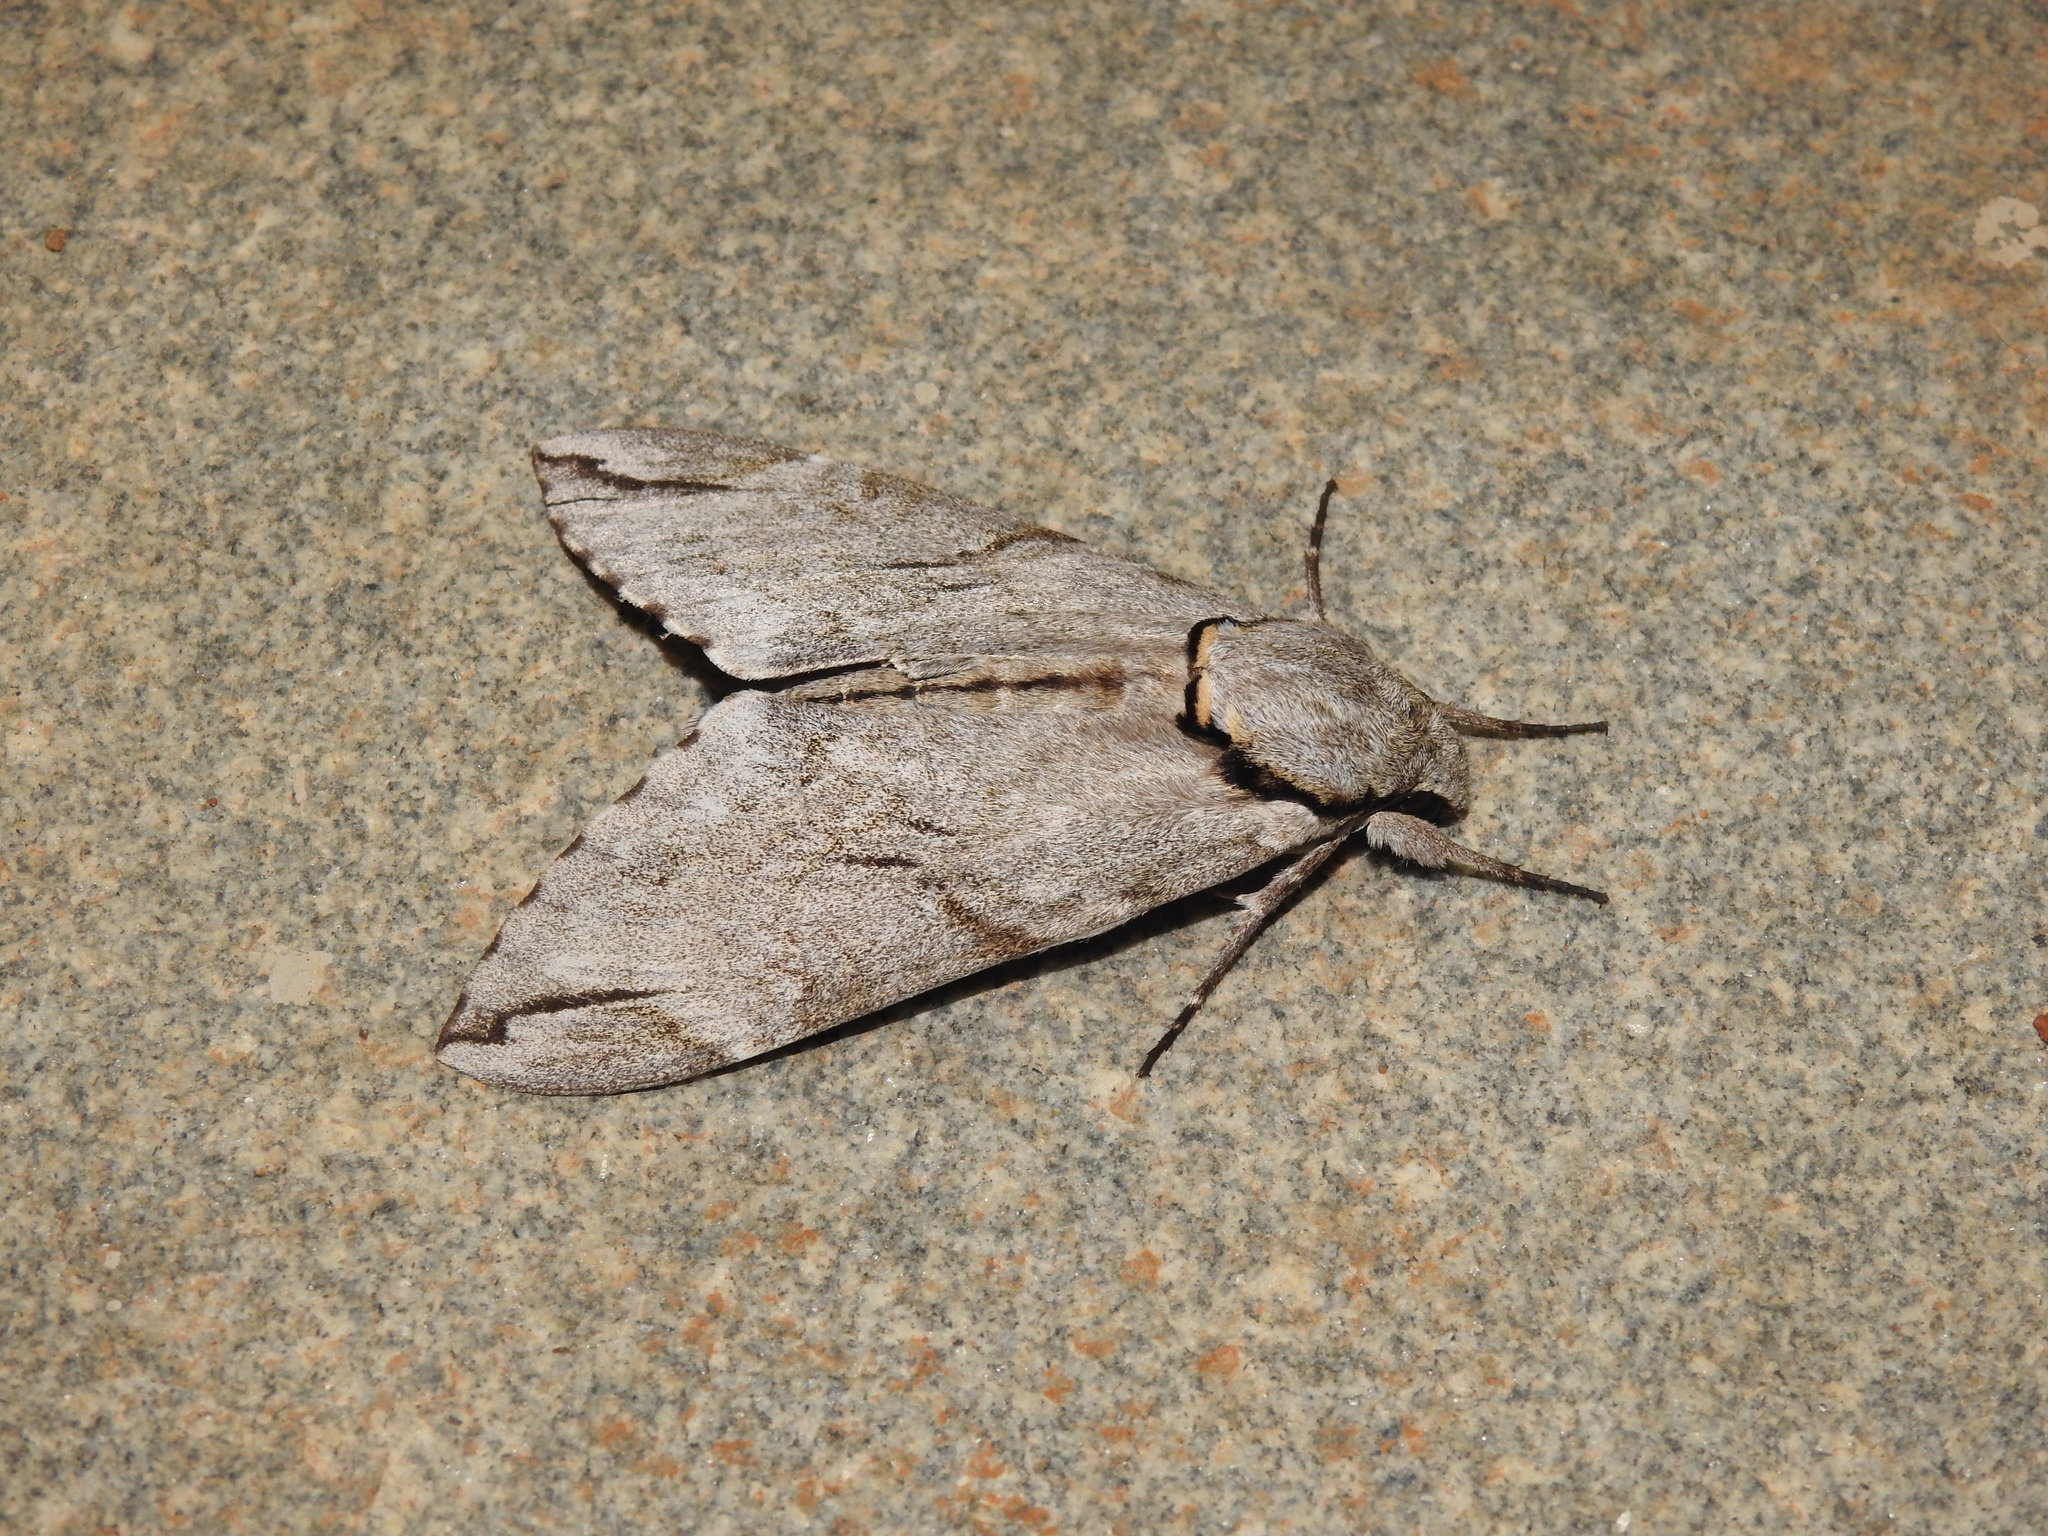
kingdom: Animalia
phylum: Arthropoda
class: Insecta
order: Lepidoptera
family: Sphingidae
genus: Psilogramma
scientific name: Psilogramma increta
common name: Gray hawk moth
